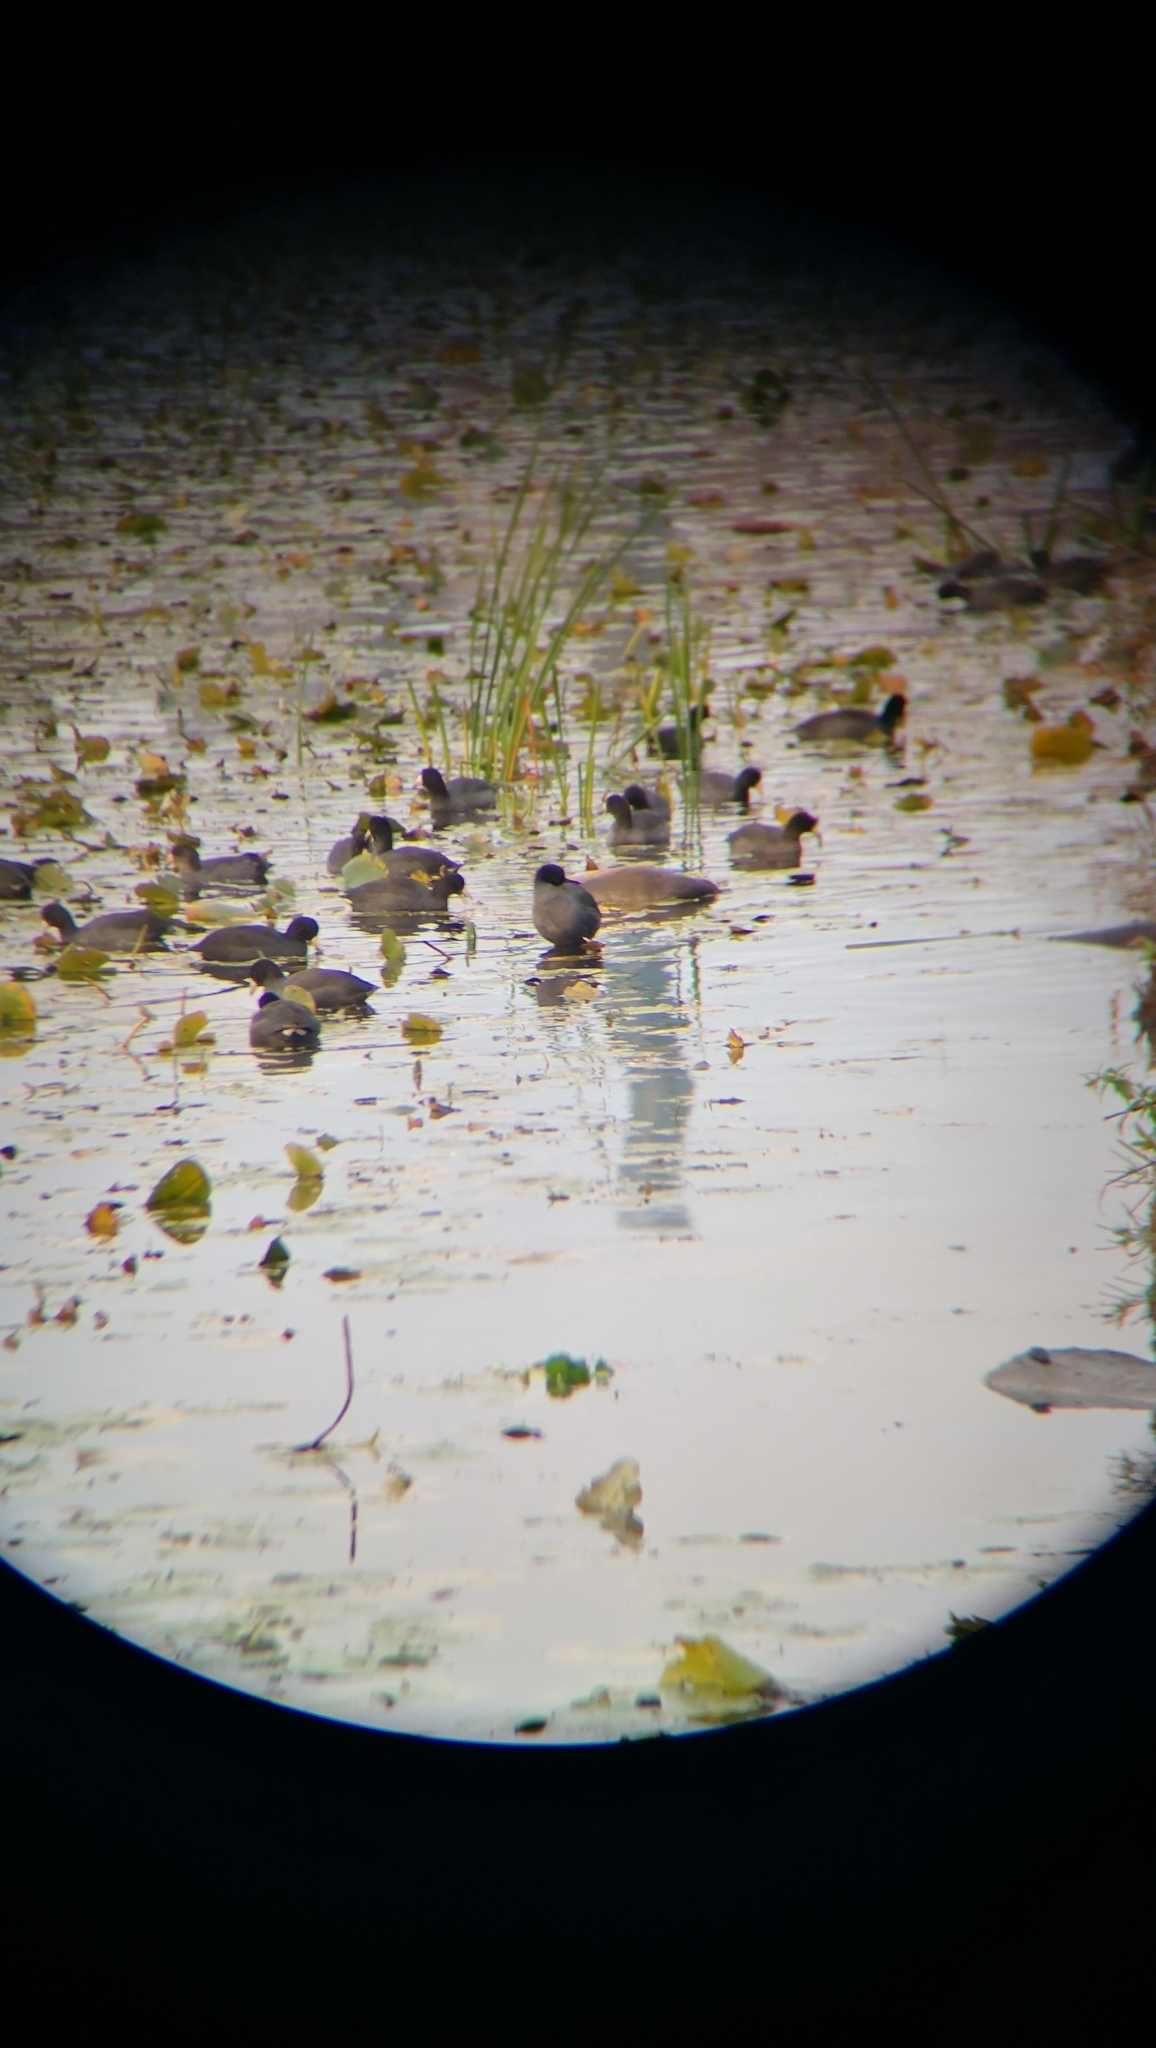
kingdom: Animalia
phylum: Chordata
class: Aves
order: Gruiformes
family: Rallidae
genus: Fulica
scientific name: Fulica americana
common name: American coot
